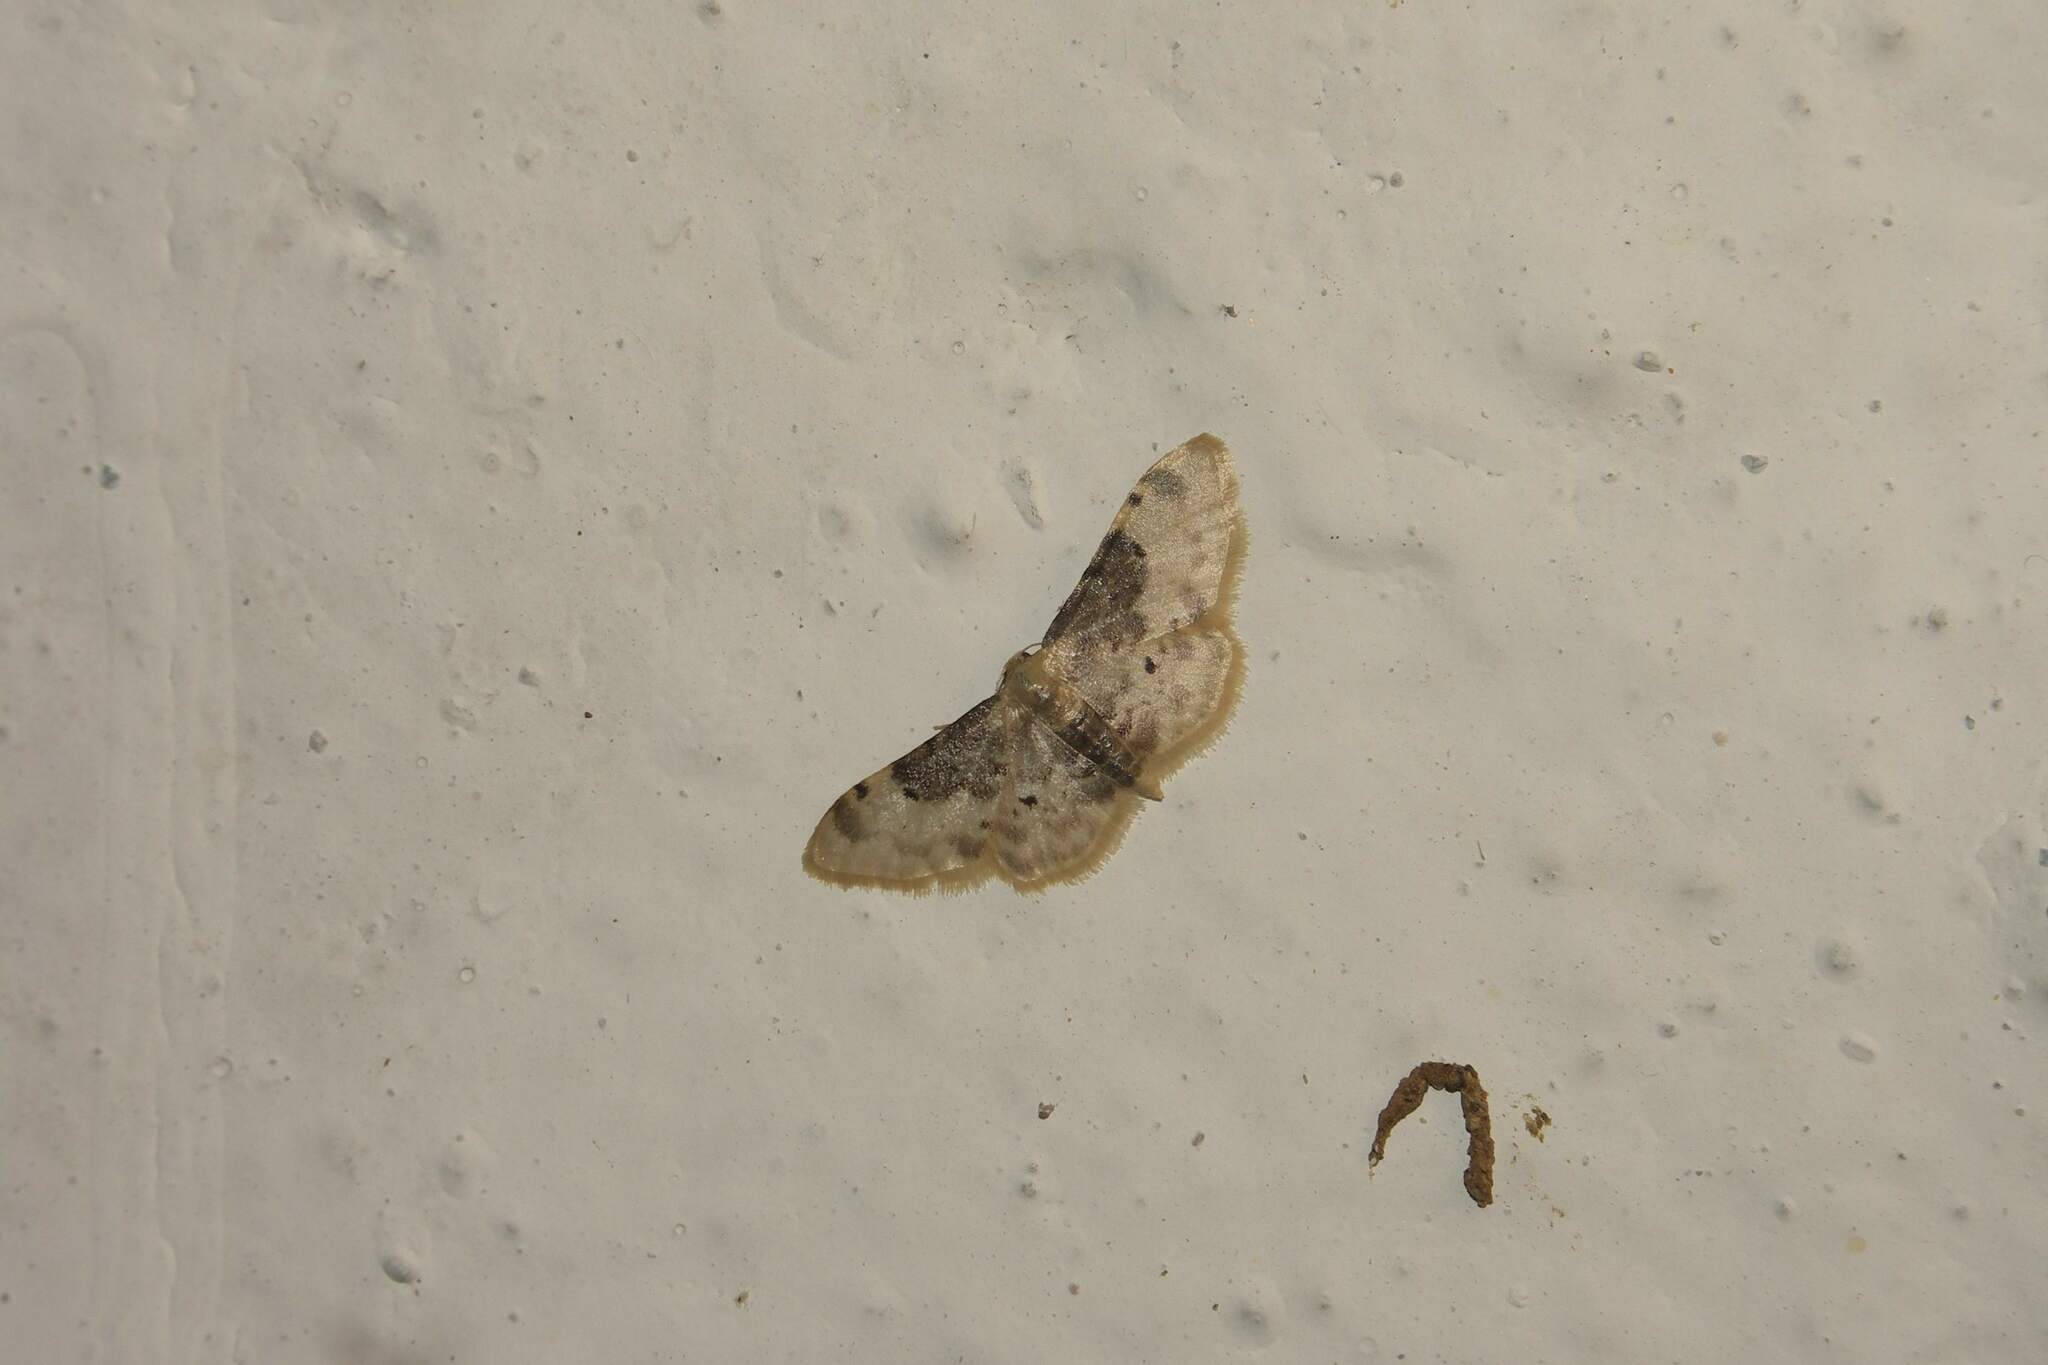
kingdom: Animalia
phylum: Arthropoda
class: Insecta
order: Lepidoptera
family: Geometridae
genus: Idaea
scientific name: Idaea filicata
